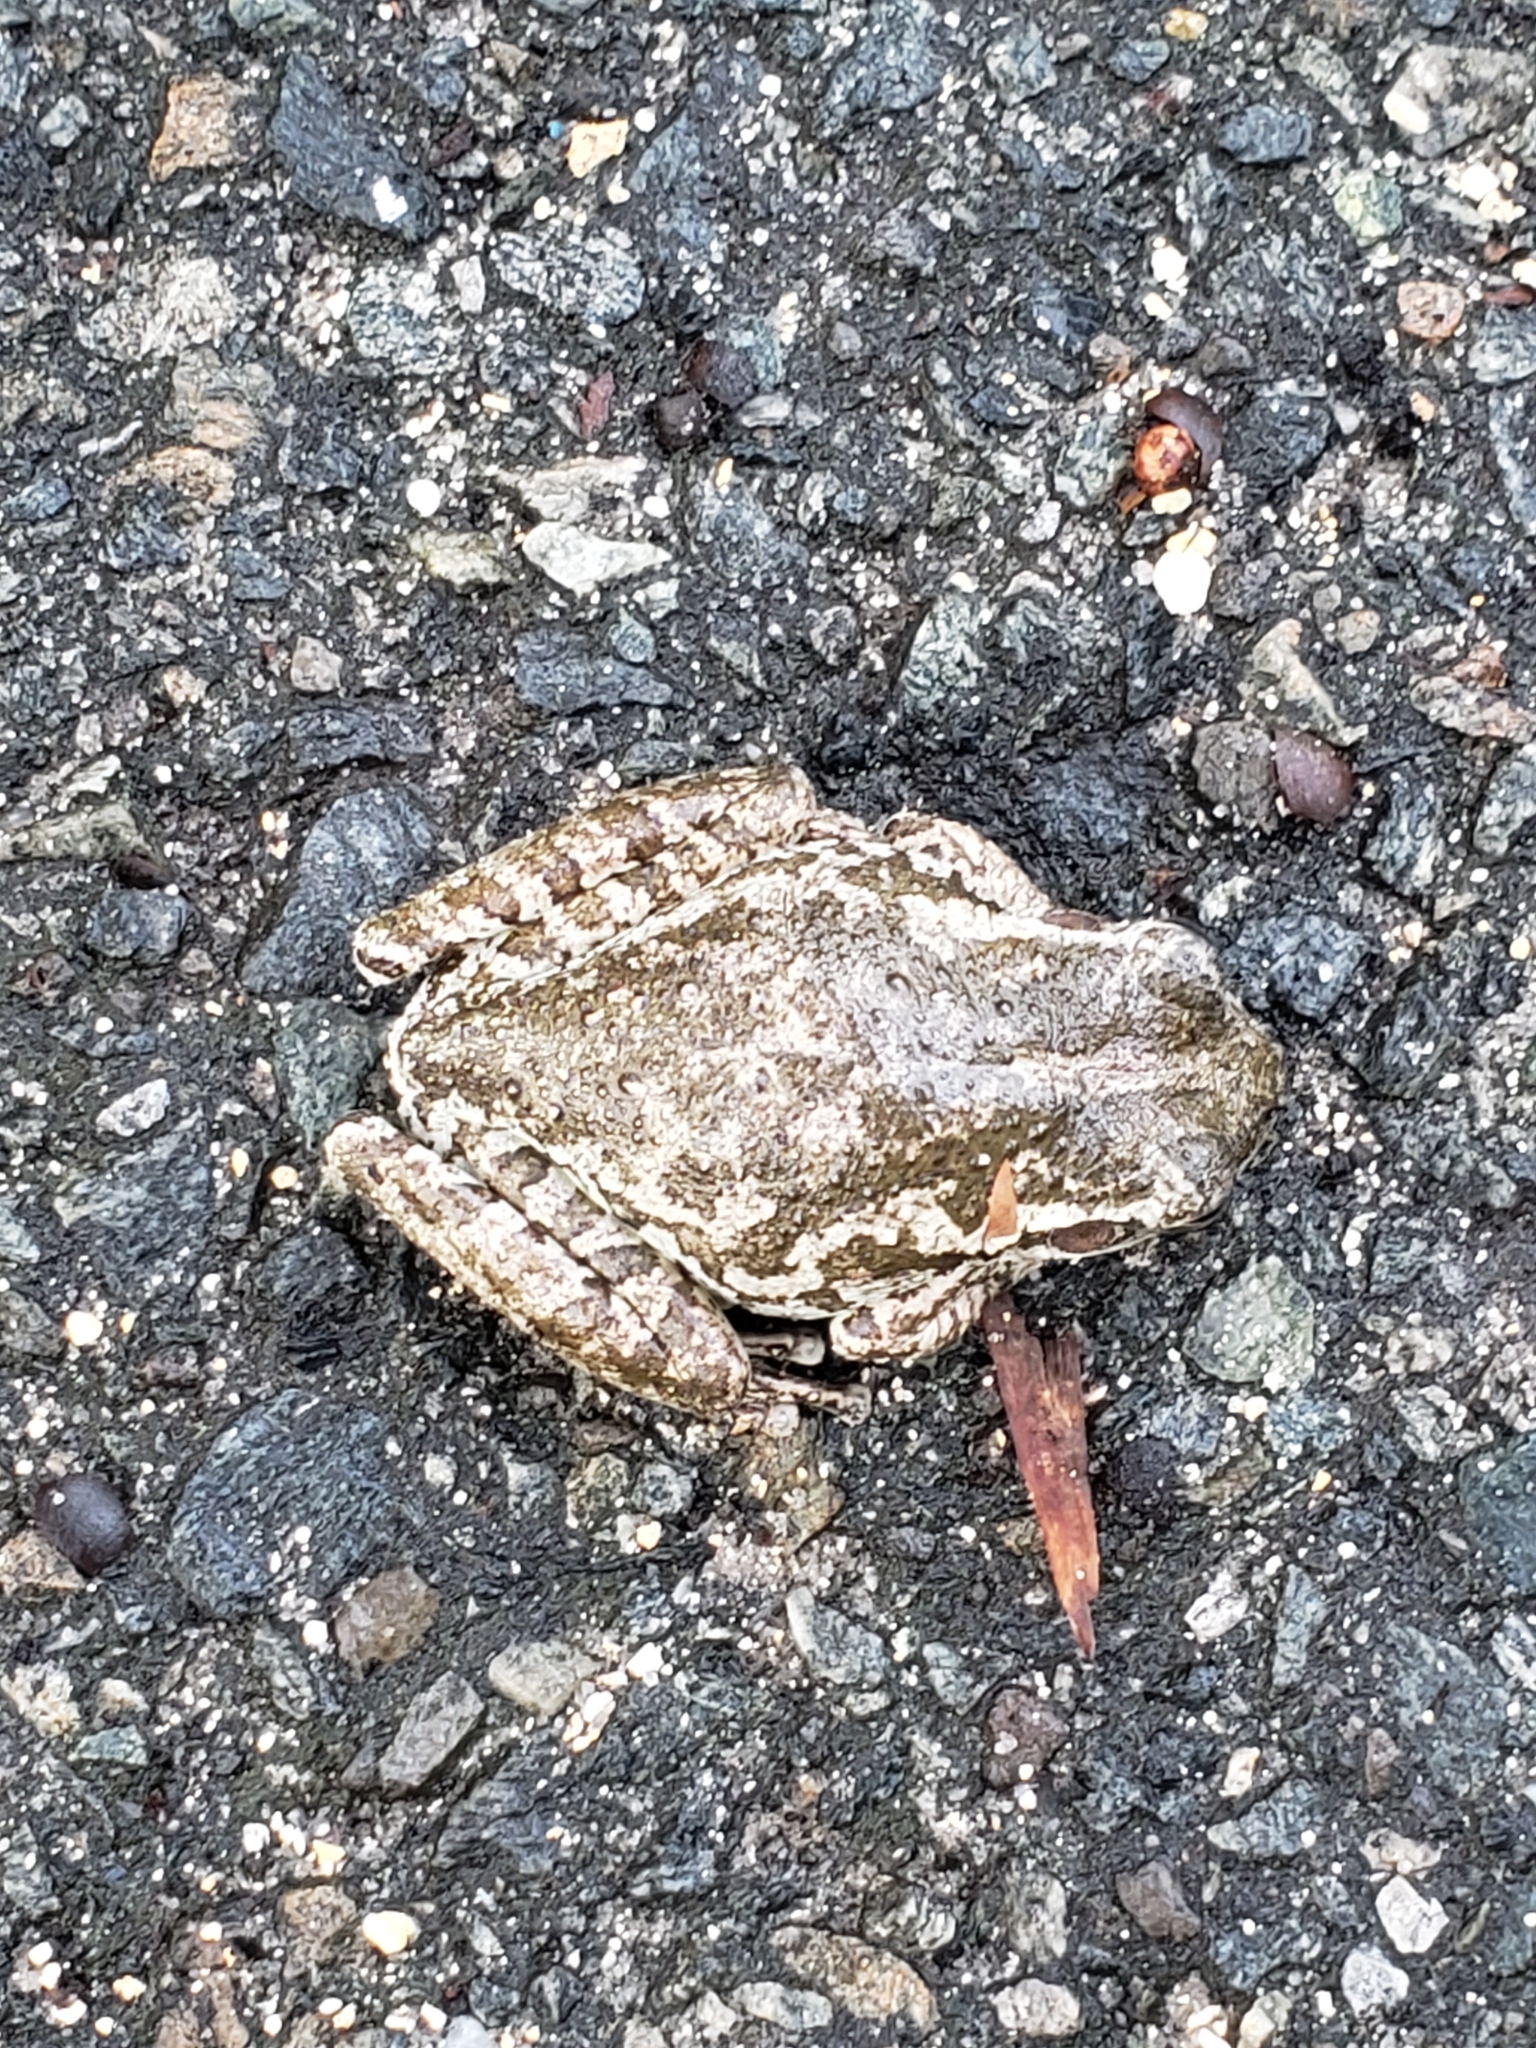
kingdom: Animalia
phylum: Chordata
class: Amphibia
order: Anura
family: Hylidae
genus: Osteopilus
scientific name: Osteopilus septentrionalis
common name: Cuban treefrog
